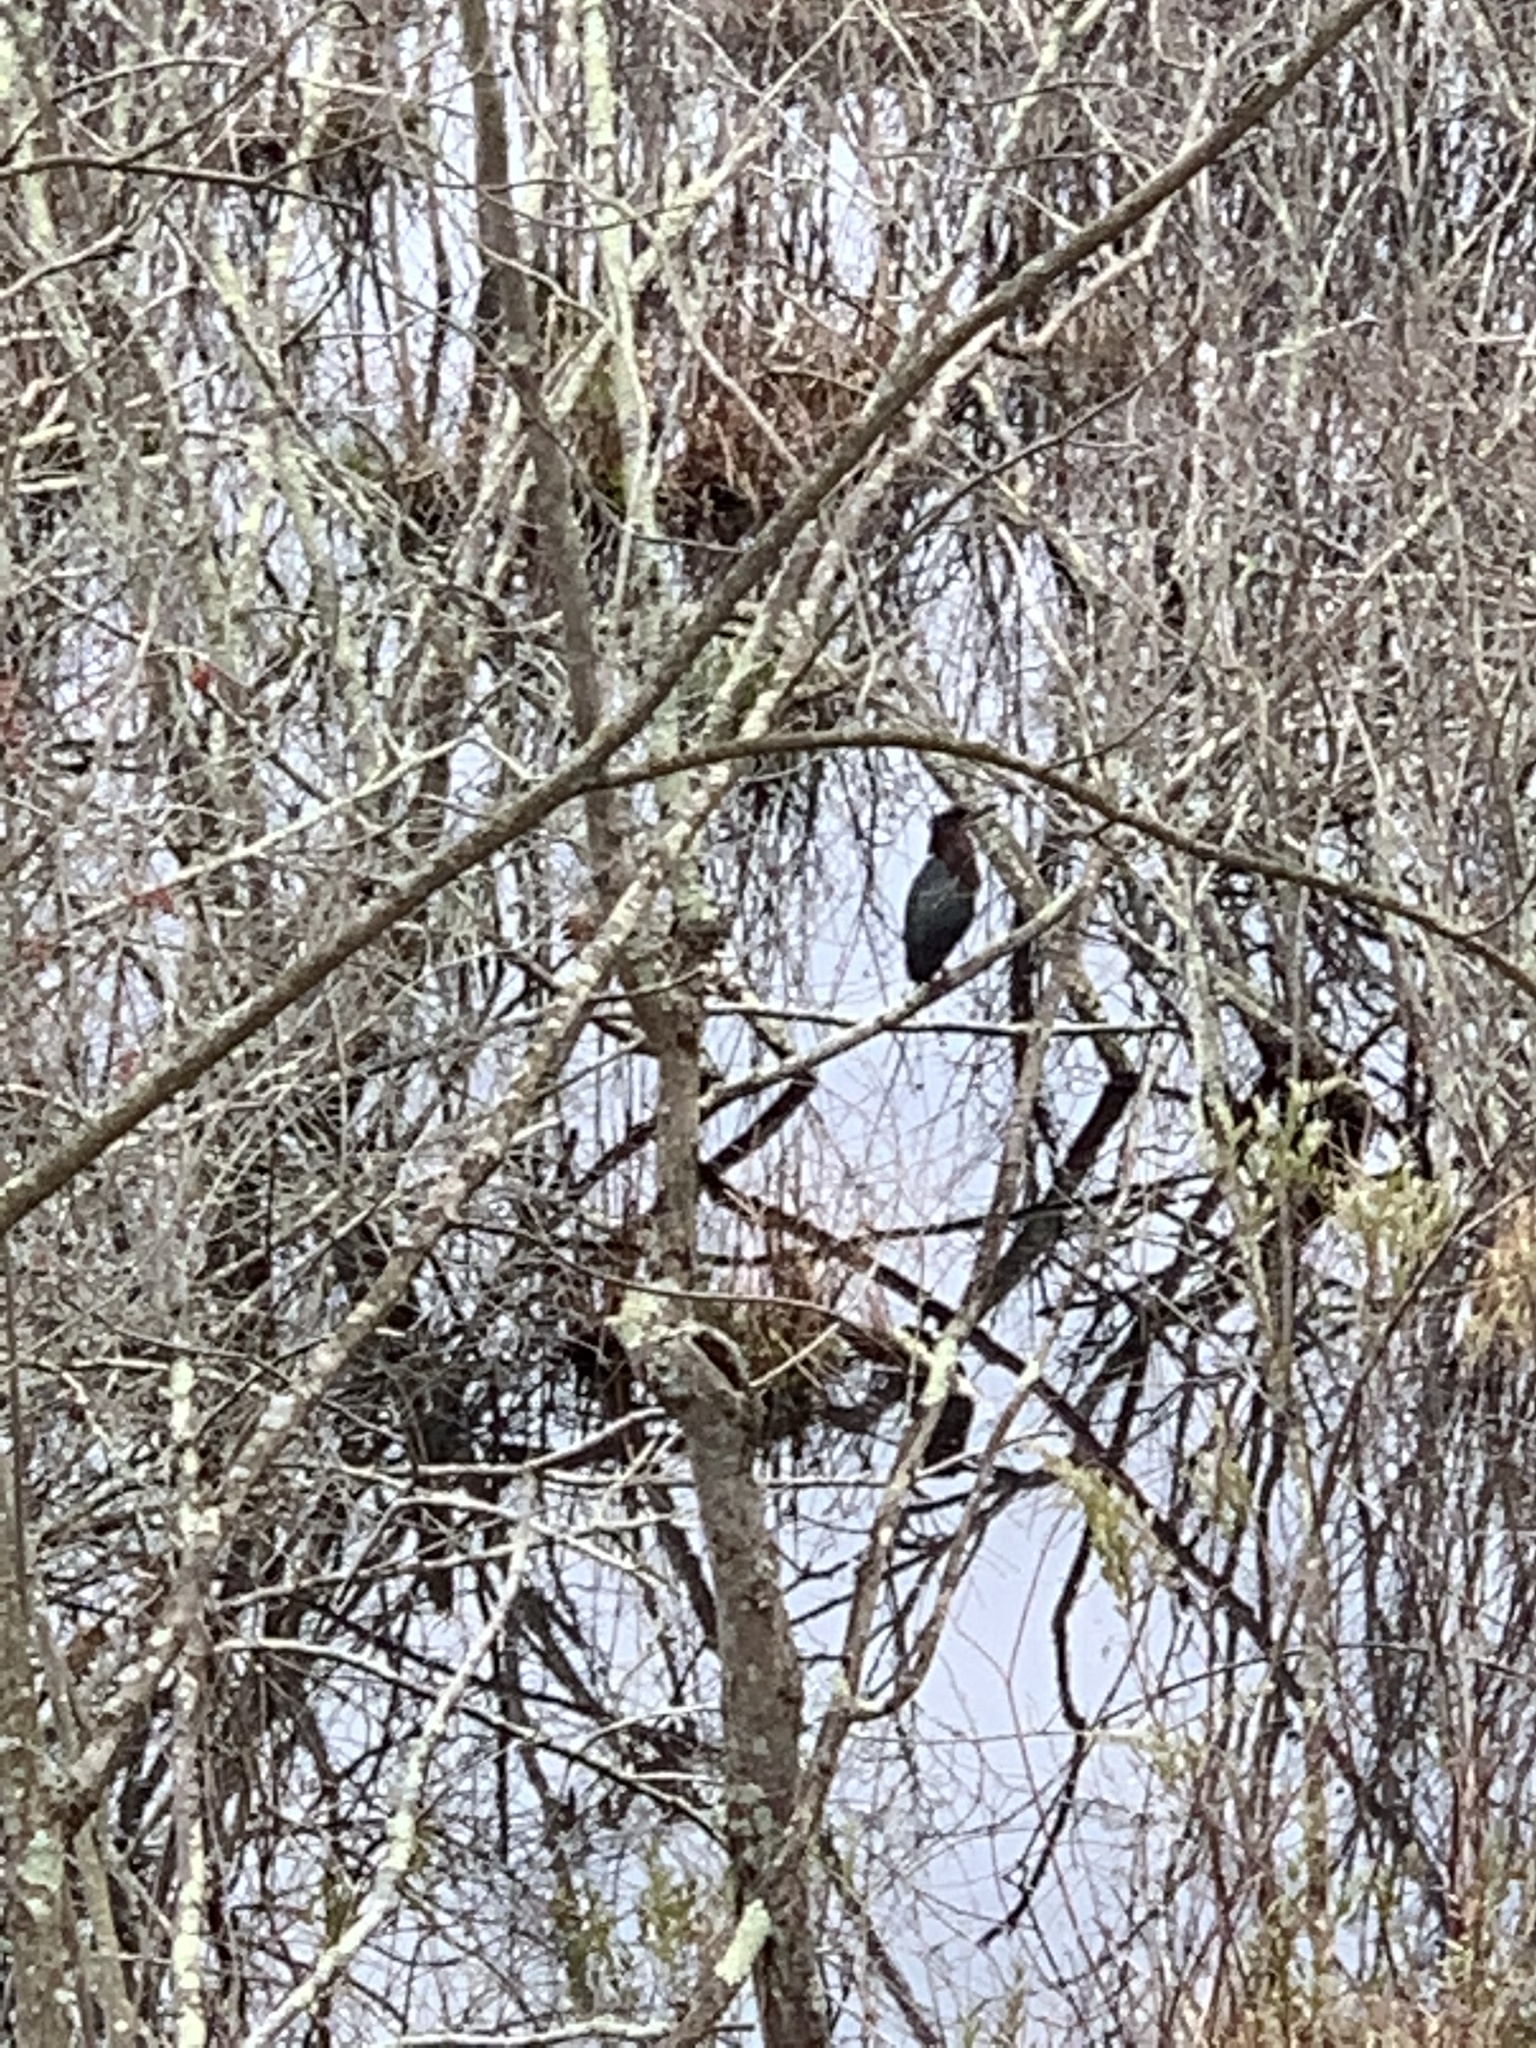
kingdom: Animalia
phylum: Chordata
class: Aves
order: Pelecaniformes
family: Ardeidae
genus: Butorides
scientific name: Butorides virescens
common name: Green heron
